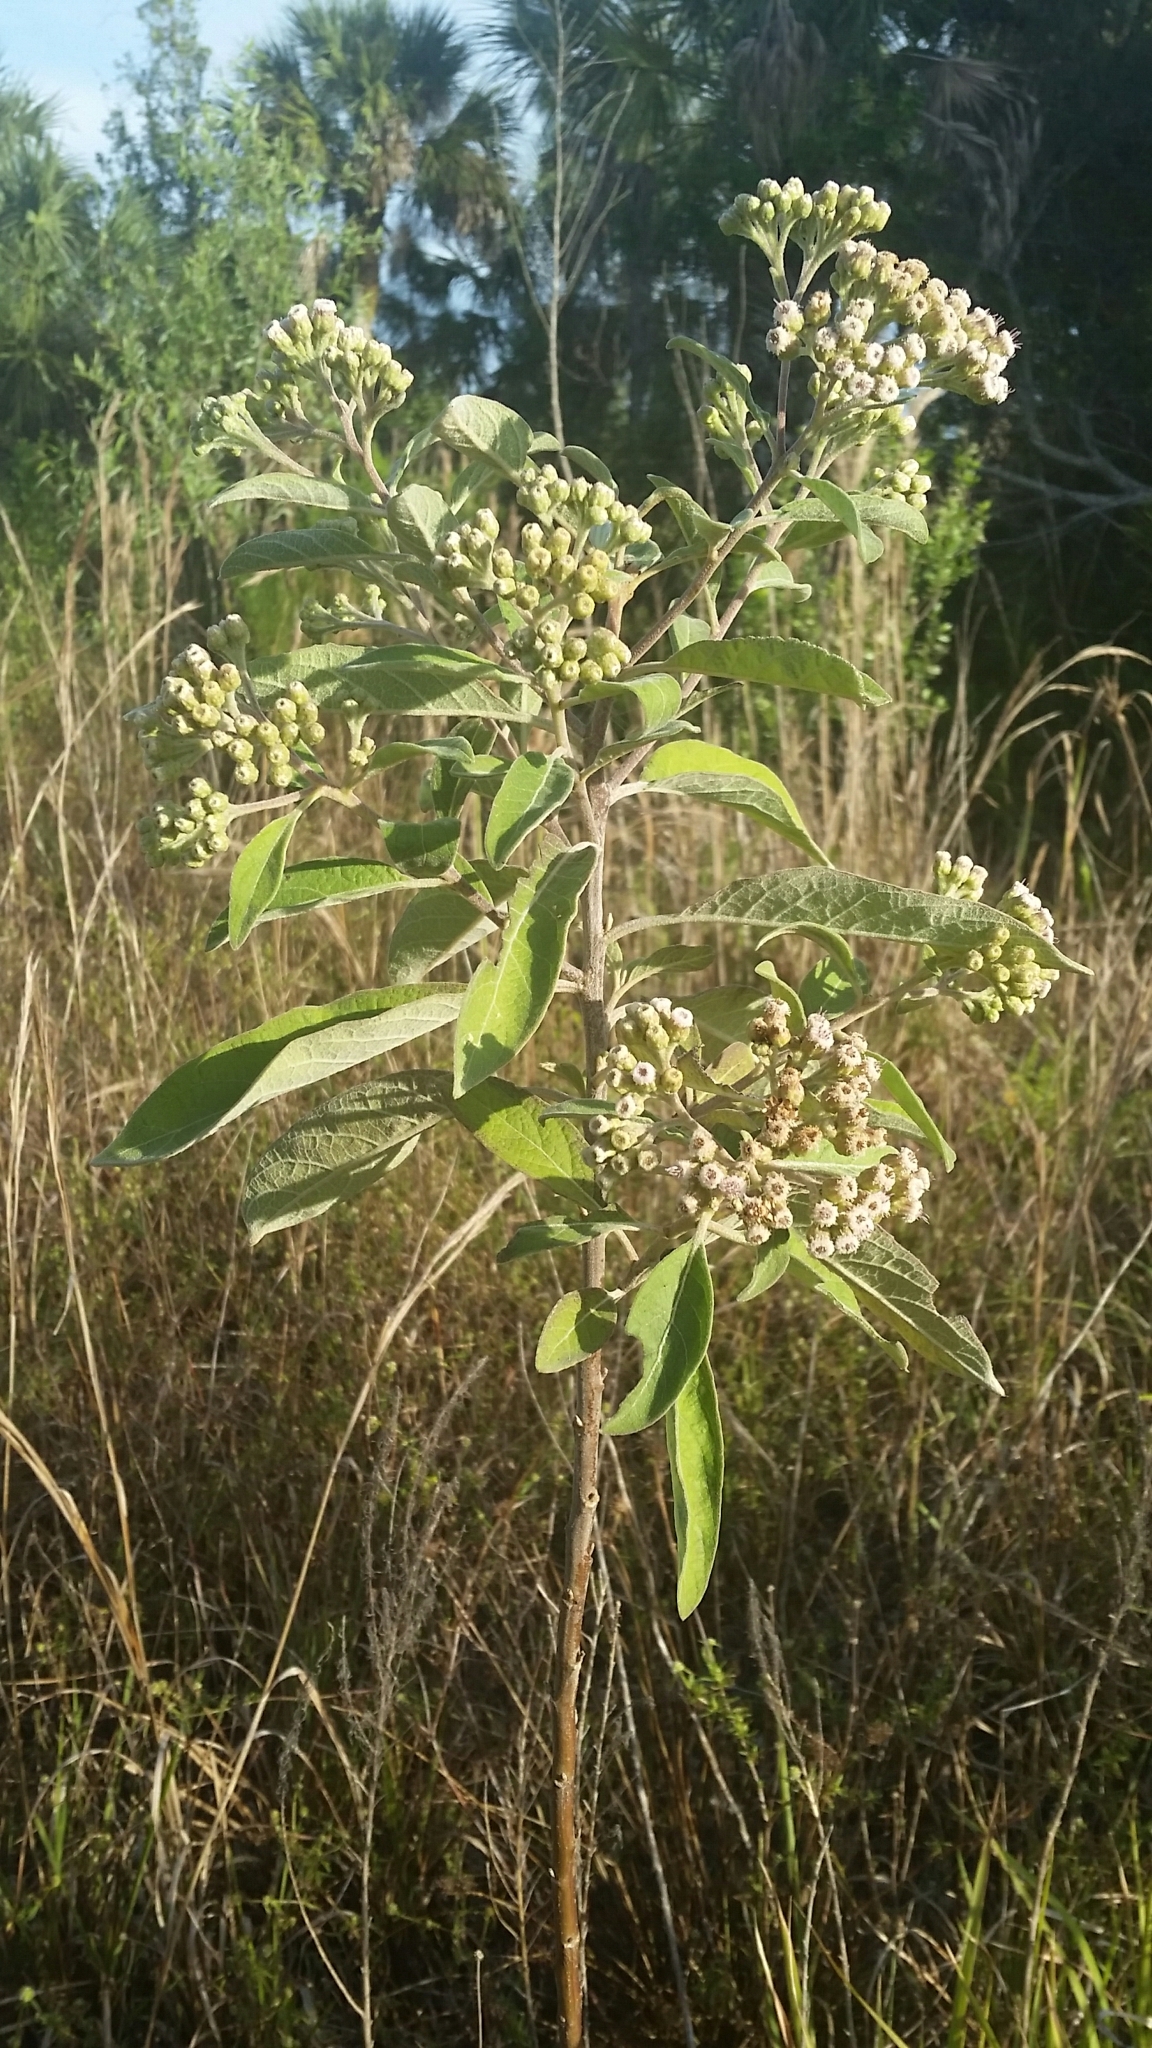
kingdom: Plantae
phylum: Tracheophyta
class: Magnoliopsida
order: Asterales
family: Asteraceae
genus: Pluchea
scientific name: Pluchea carolinensis
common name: Marsh fleabane
